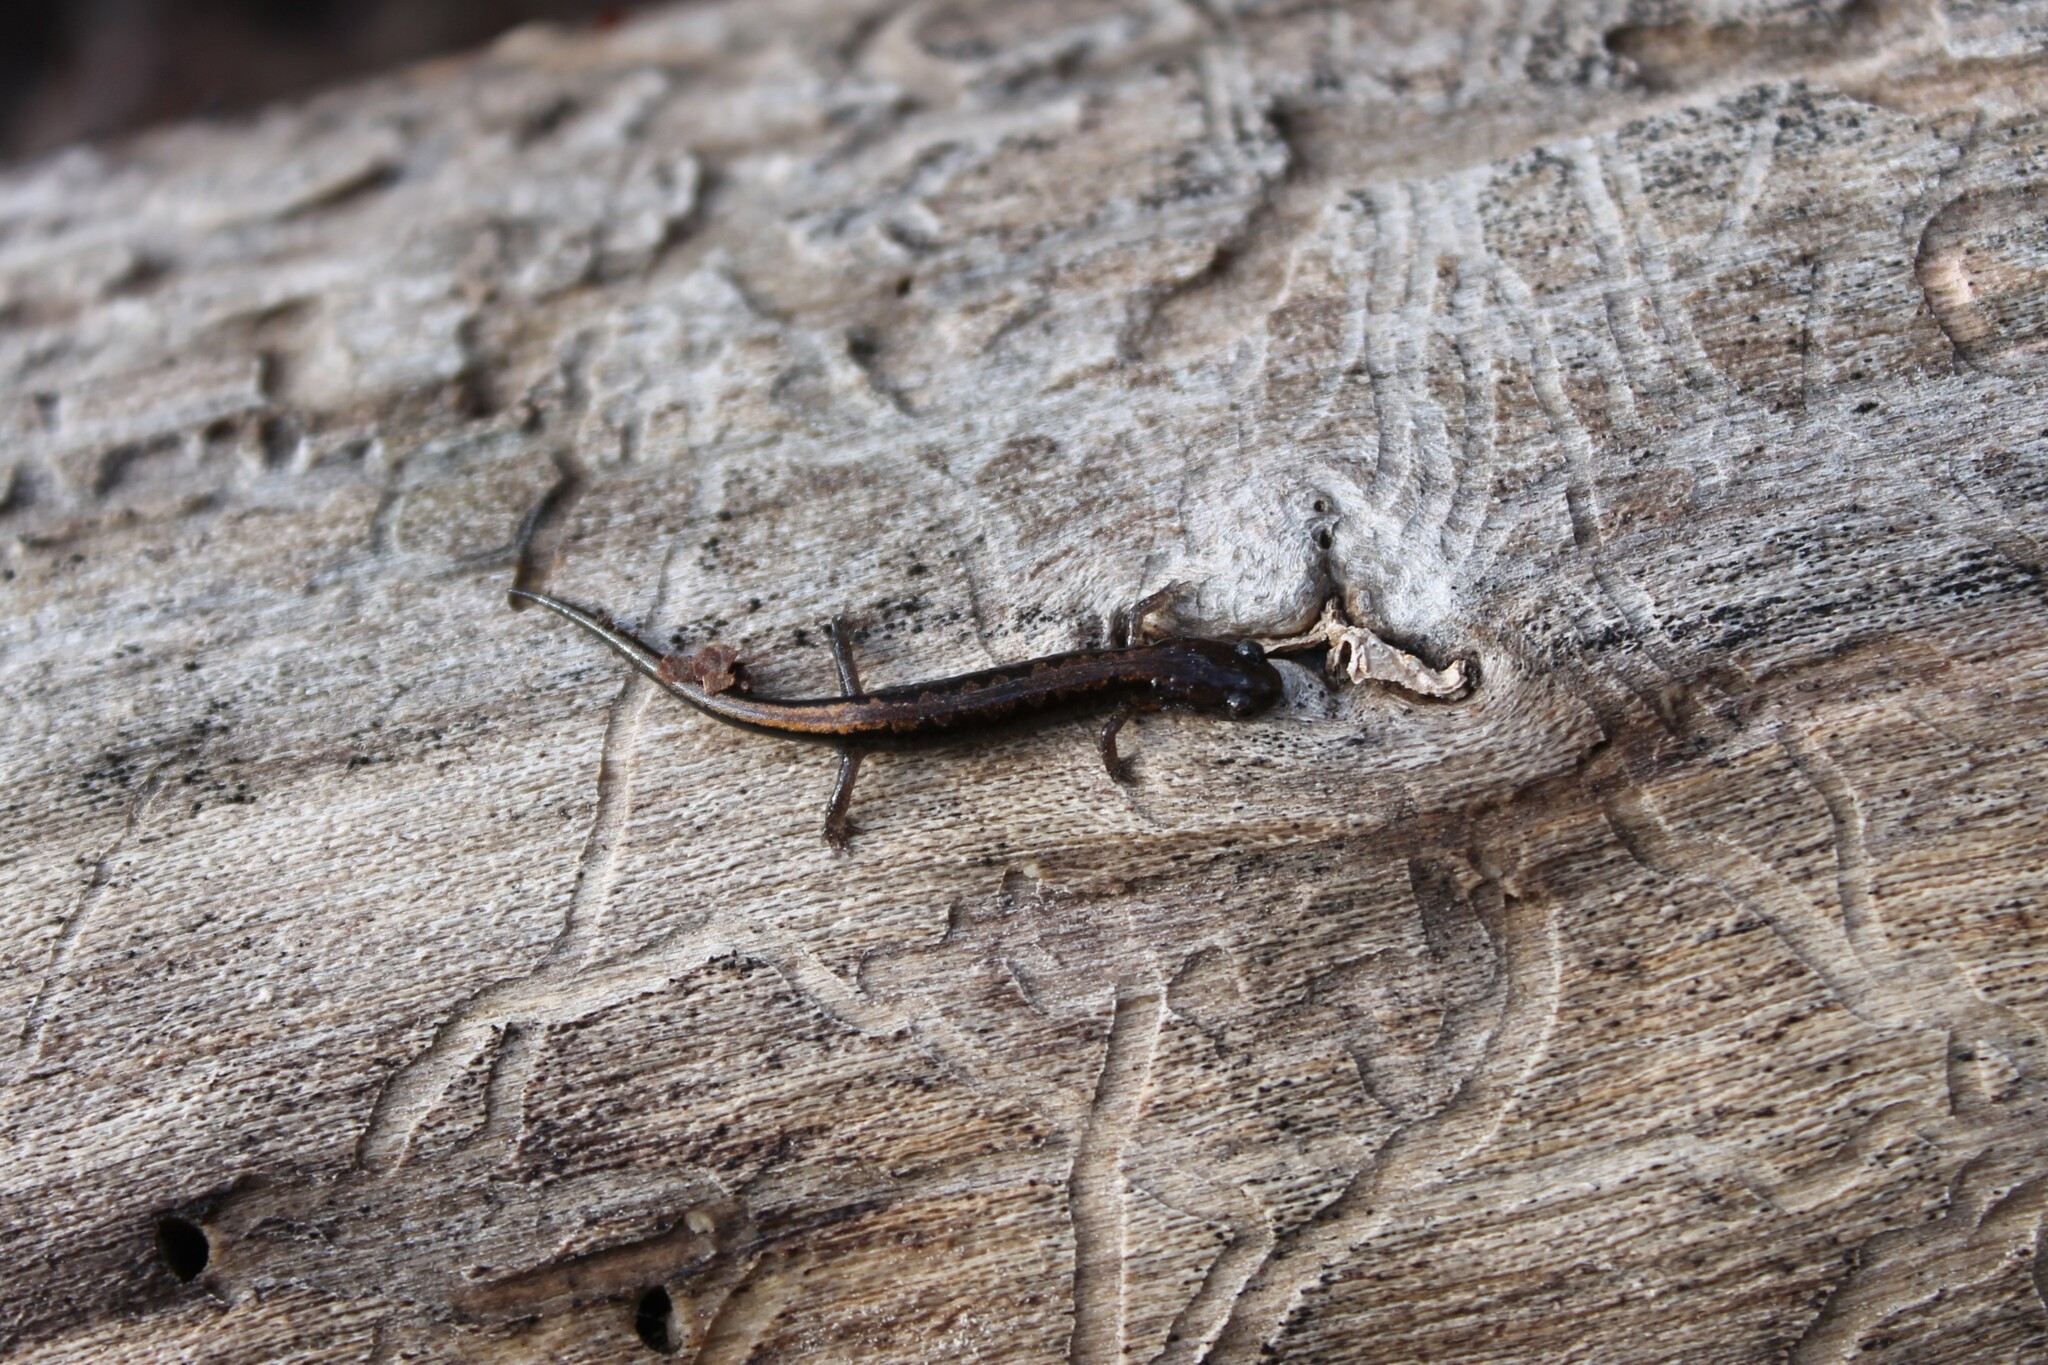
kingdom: Animalia
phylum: Chordata
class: Amphibia
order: Caudata
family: Plethodontidae
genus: Plethodon
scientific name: Plethodon dorsalis
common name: Northern zigzag salamander
